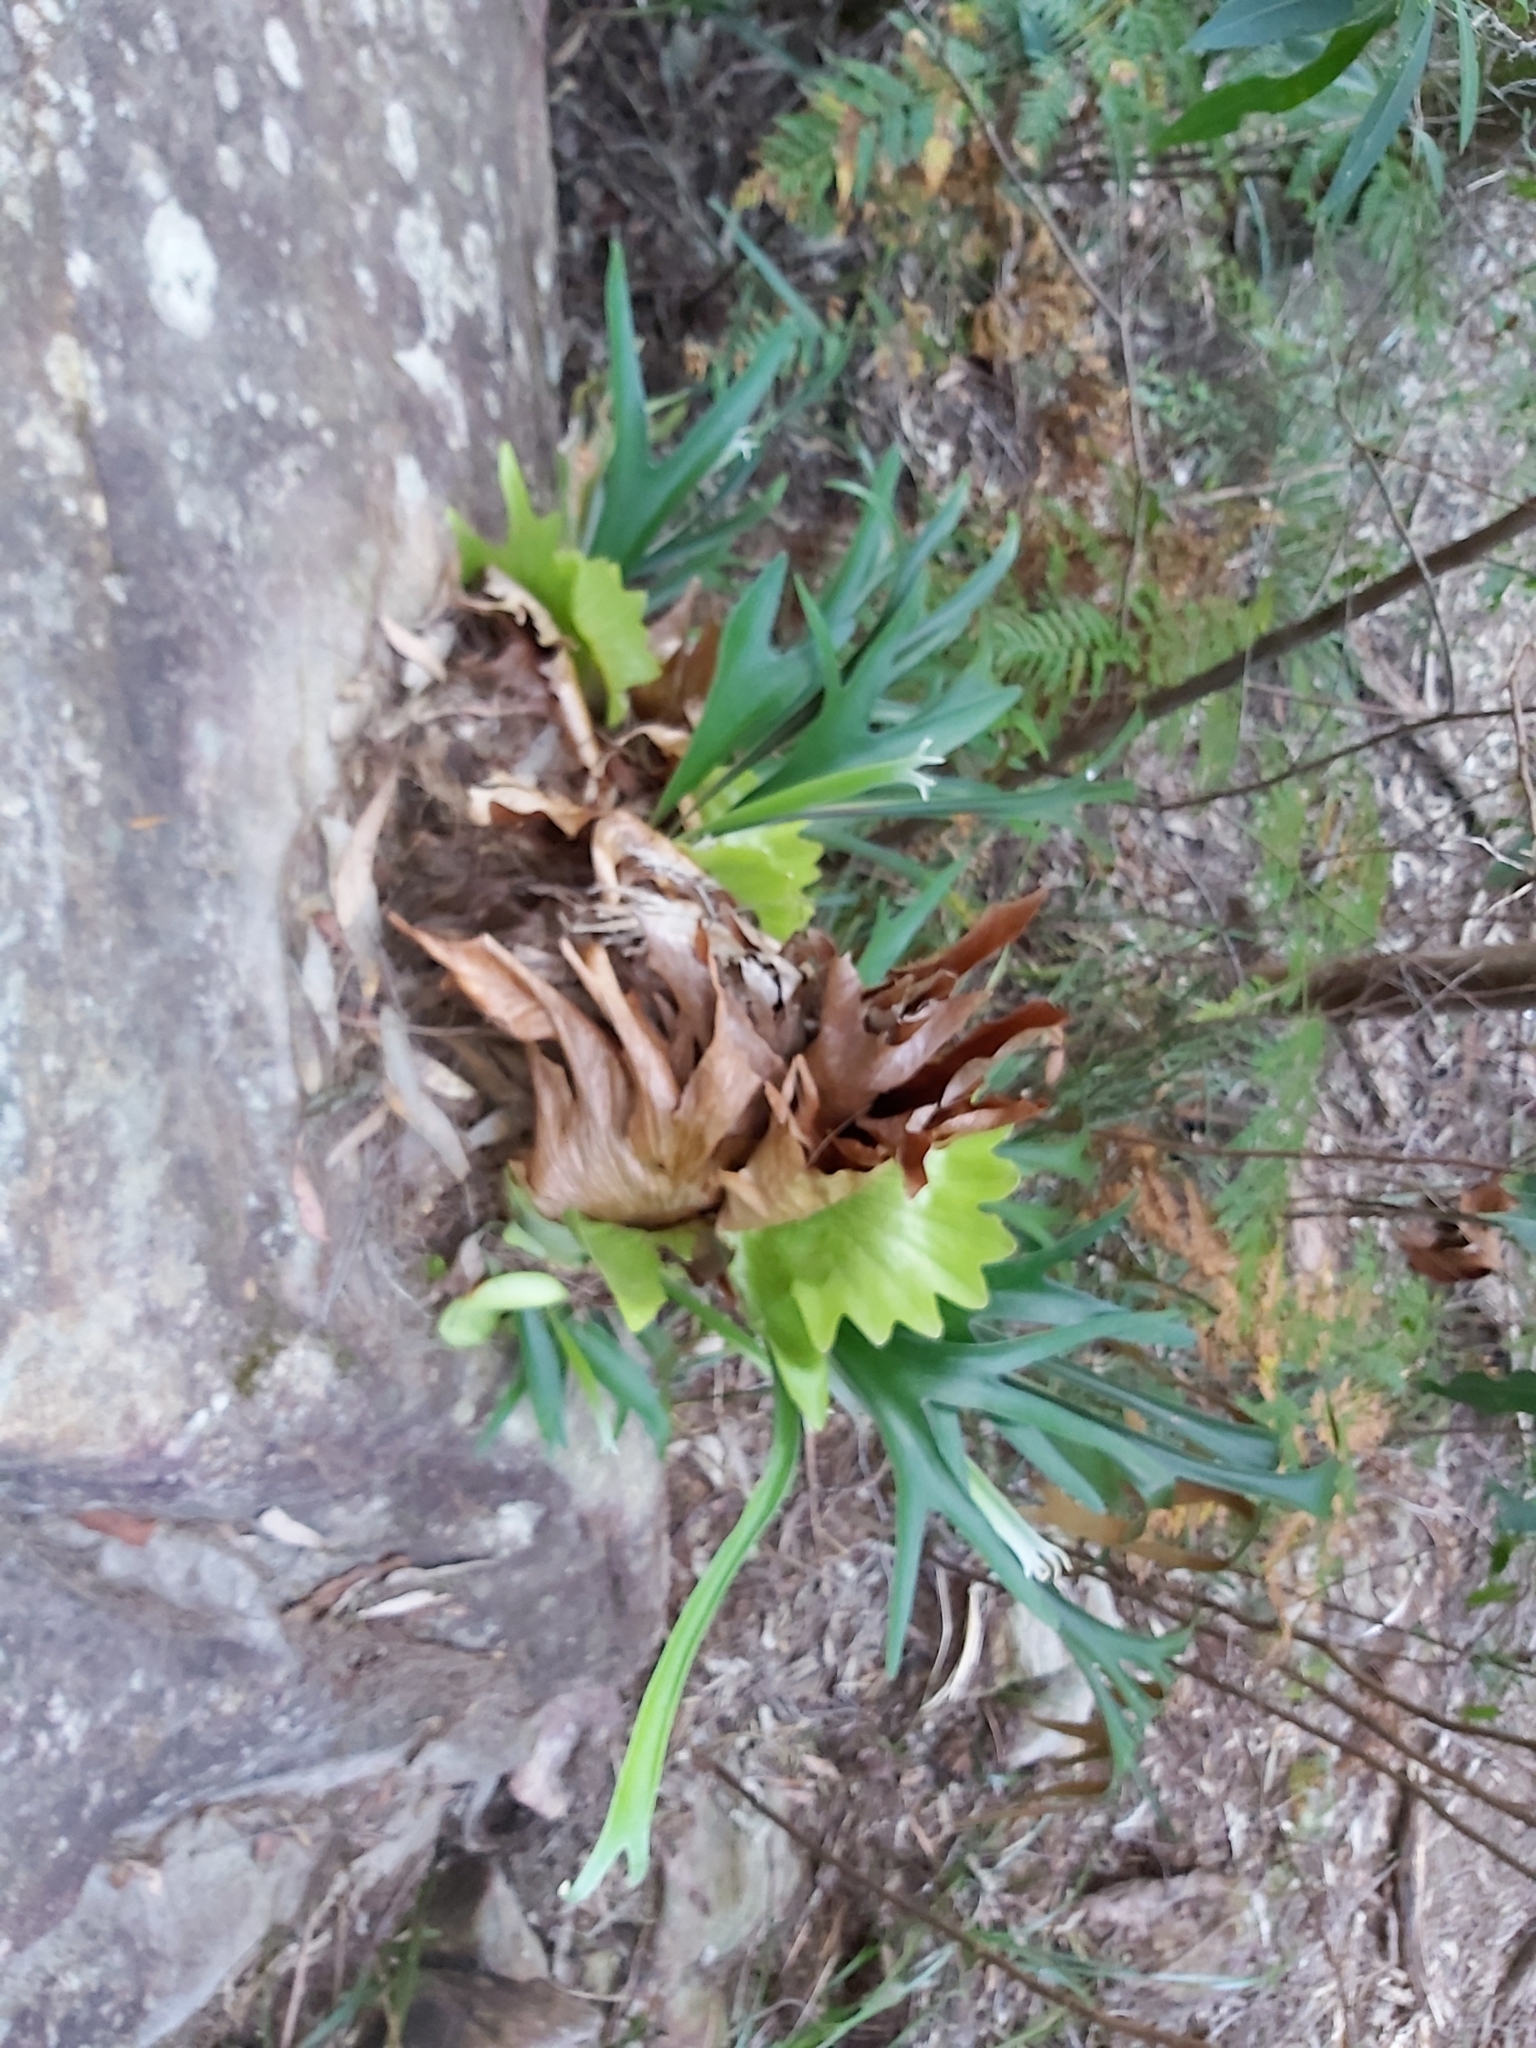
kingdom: Plantae
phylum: Tracheophyta
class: Polypodiopsida
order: Polypodiales
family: Polypodiaceae
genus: Platycerium
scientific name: Platycerium bifurcatum
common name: Elkhorn fern
